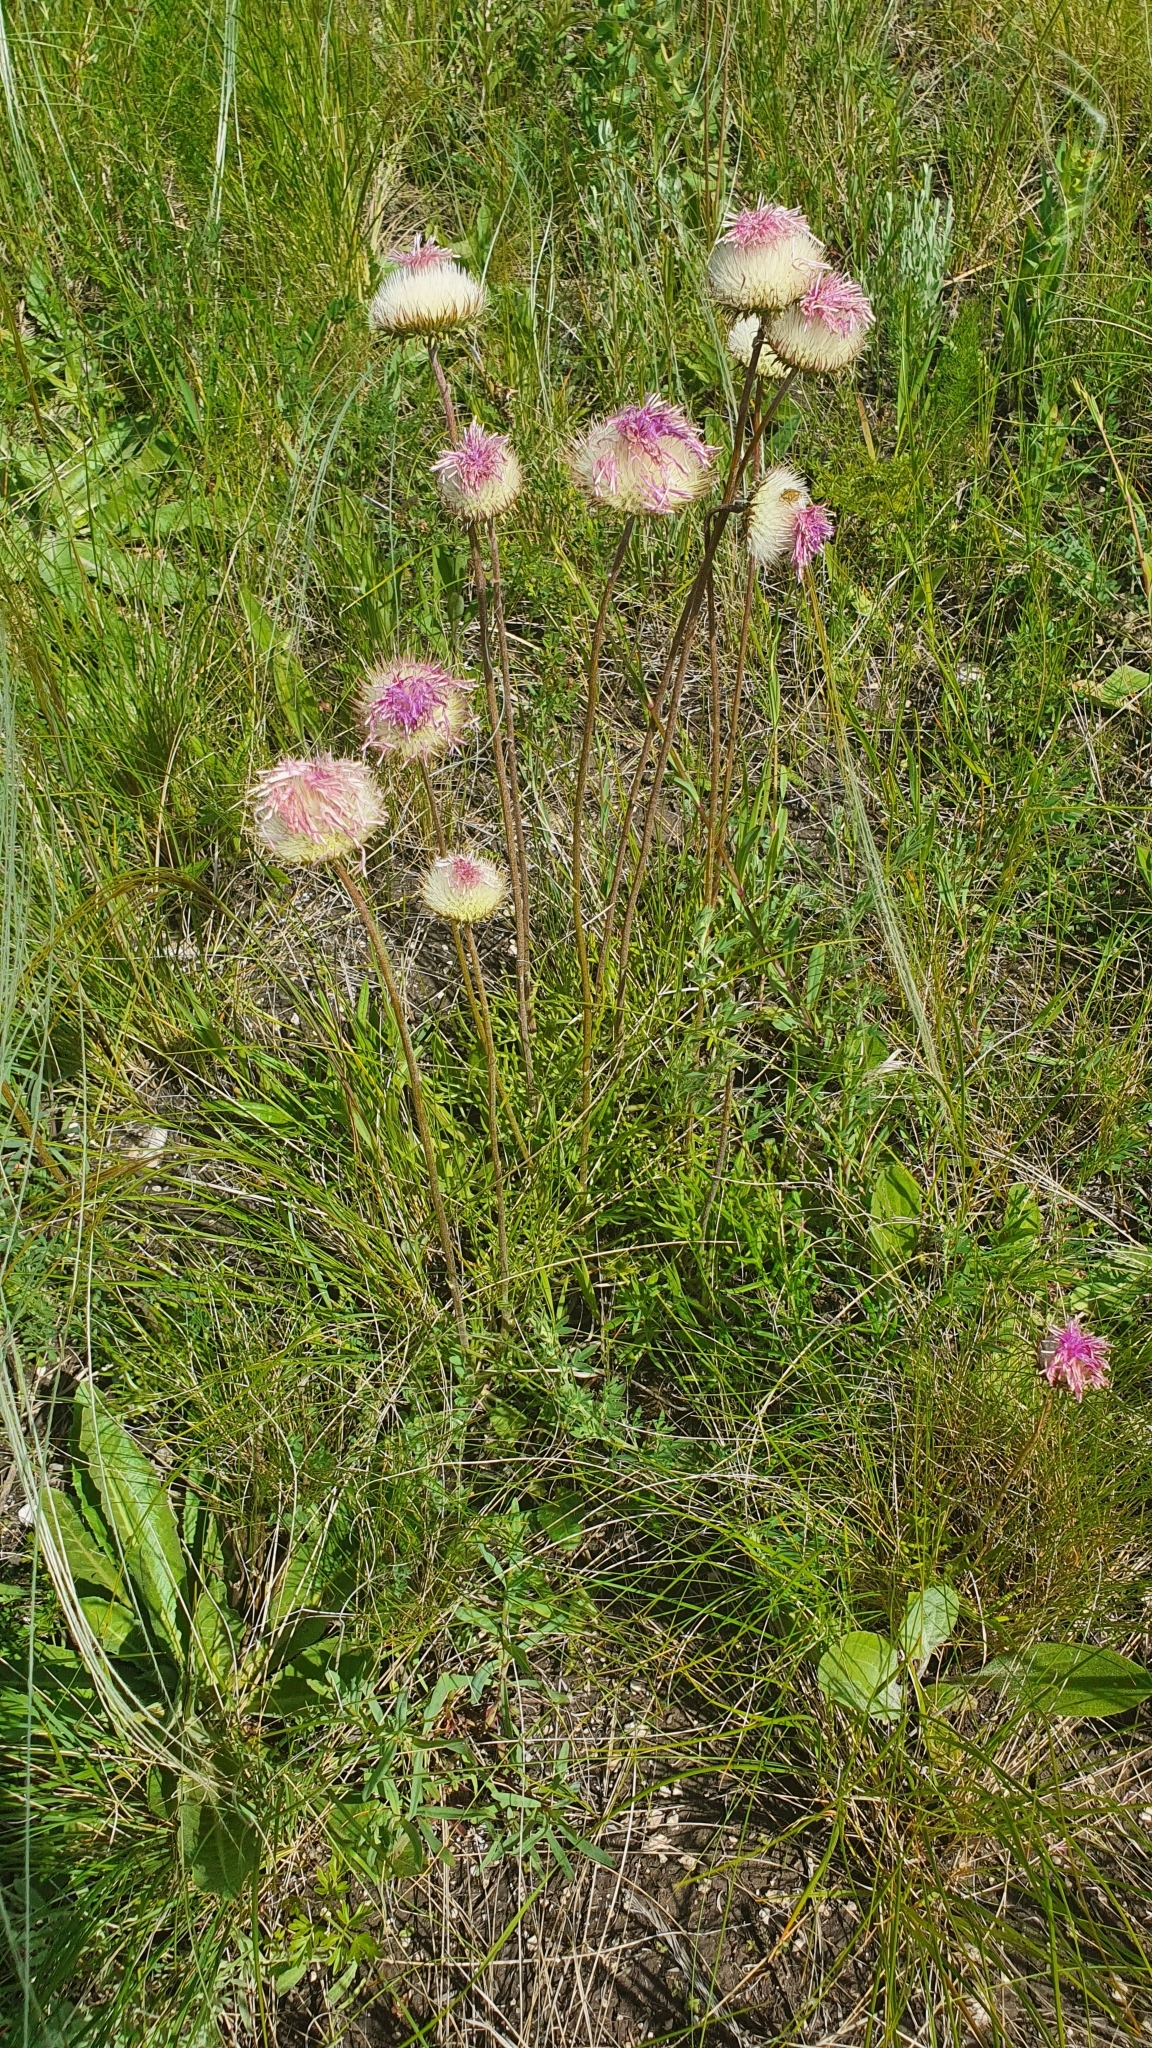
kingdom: Plantae
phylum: Tracheophyta
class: Magnoliopsida
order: Asterales
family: Asteraceae
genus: Jurinea
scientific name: Jurinea ledebourii
